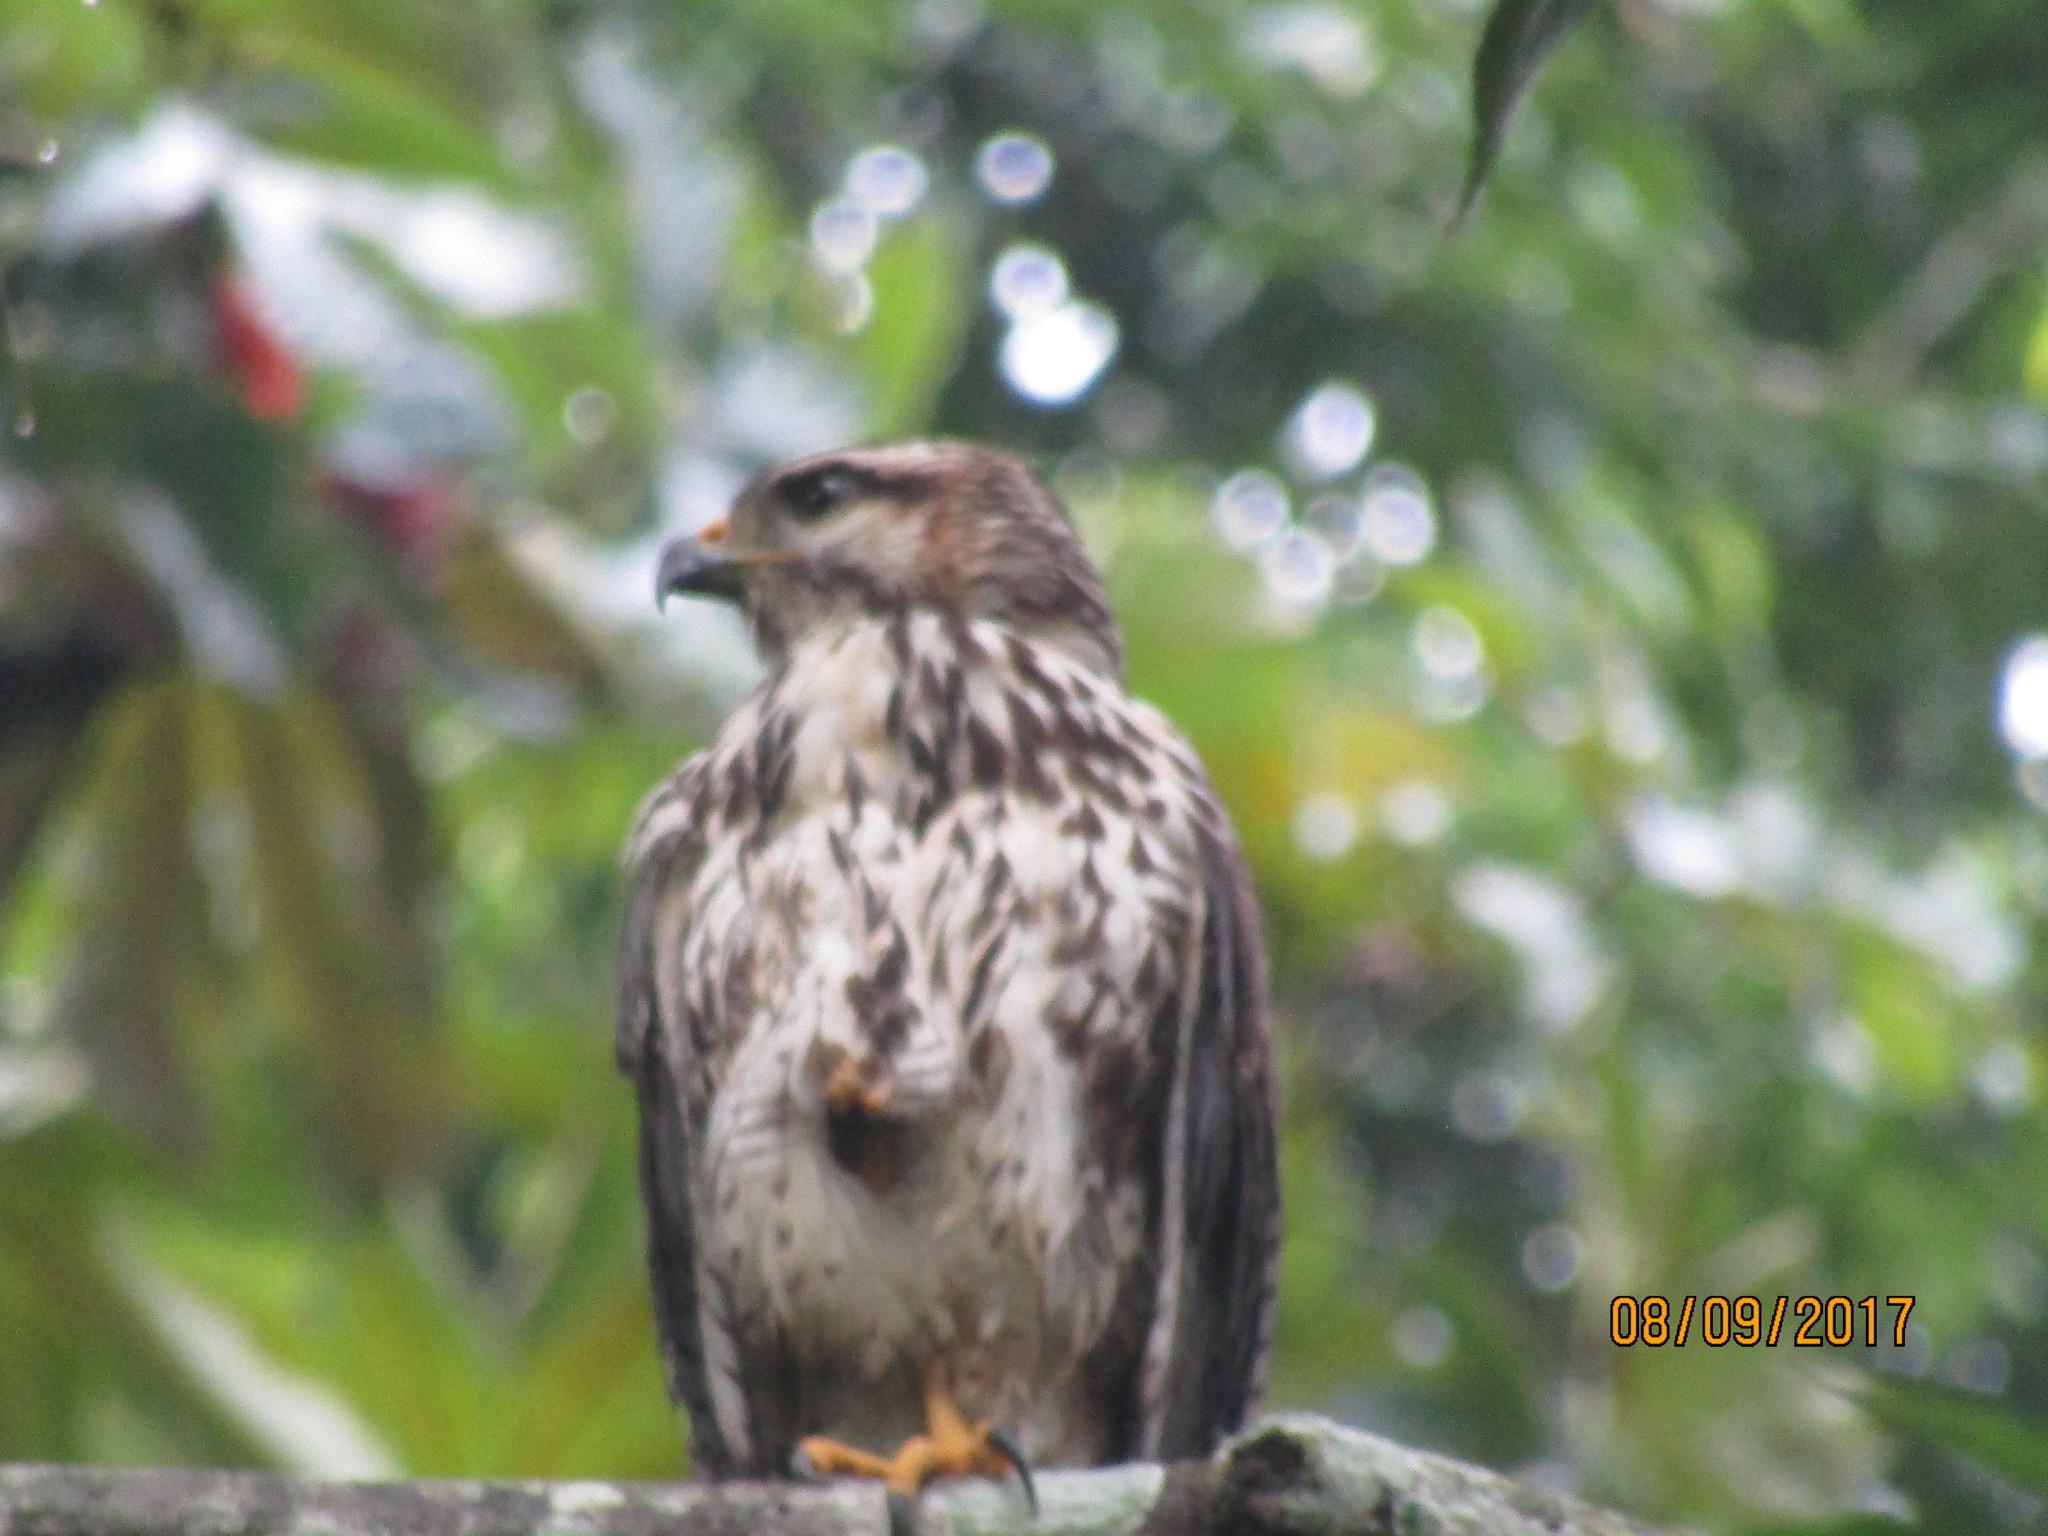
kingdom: Animalia
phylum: Chordata
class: Aves
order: Accipitriformes
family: Accipitridae
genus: Buteo
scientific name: Buteo nitidus
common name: Grey-lined hawk
